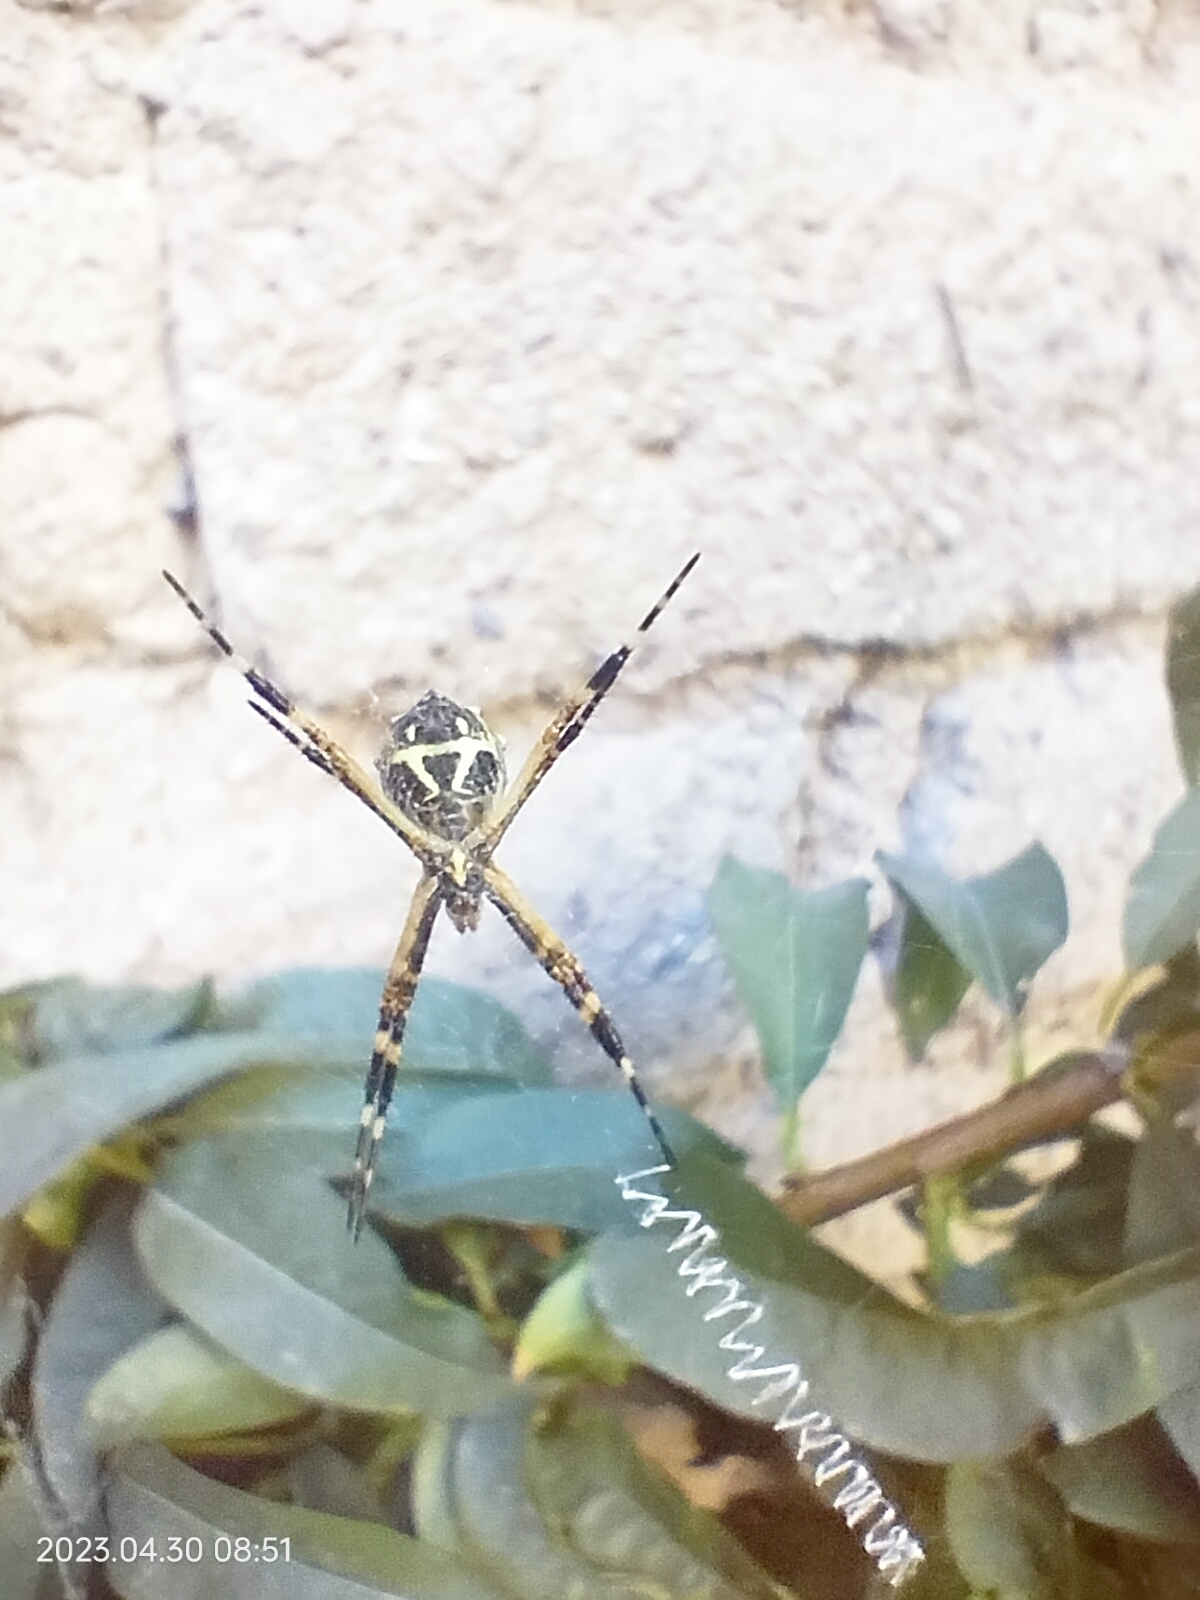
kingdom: Animalia
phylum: Arthropoda
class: Arachnida
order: Araneae
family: Araneidae
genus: Argiope
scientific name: Argiope argentata
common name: Orb weavers
